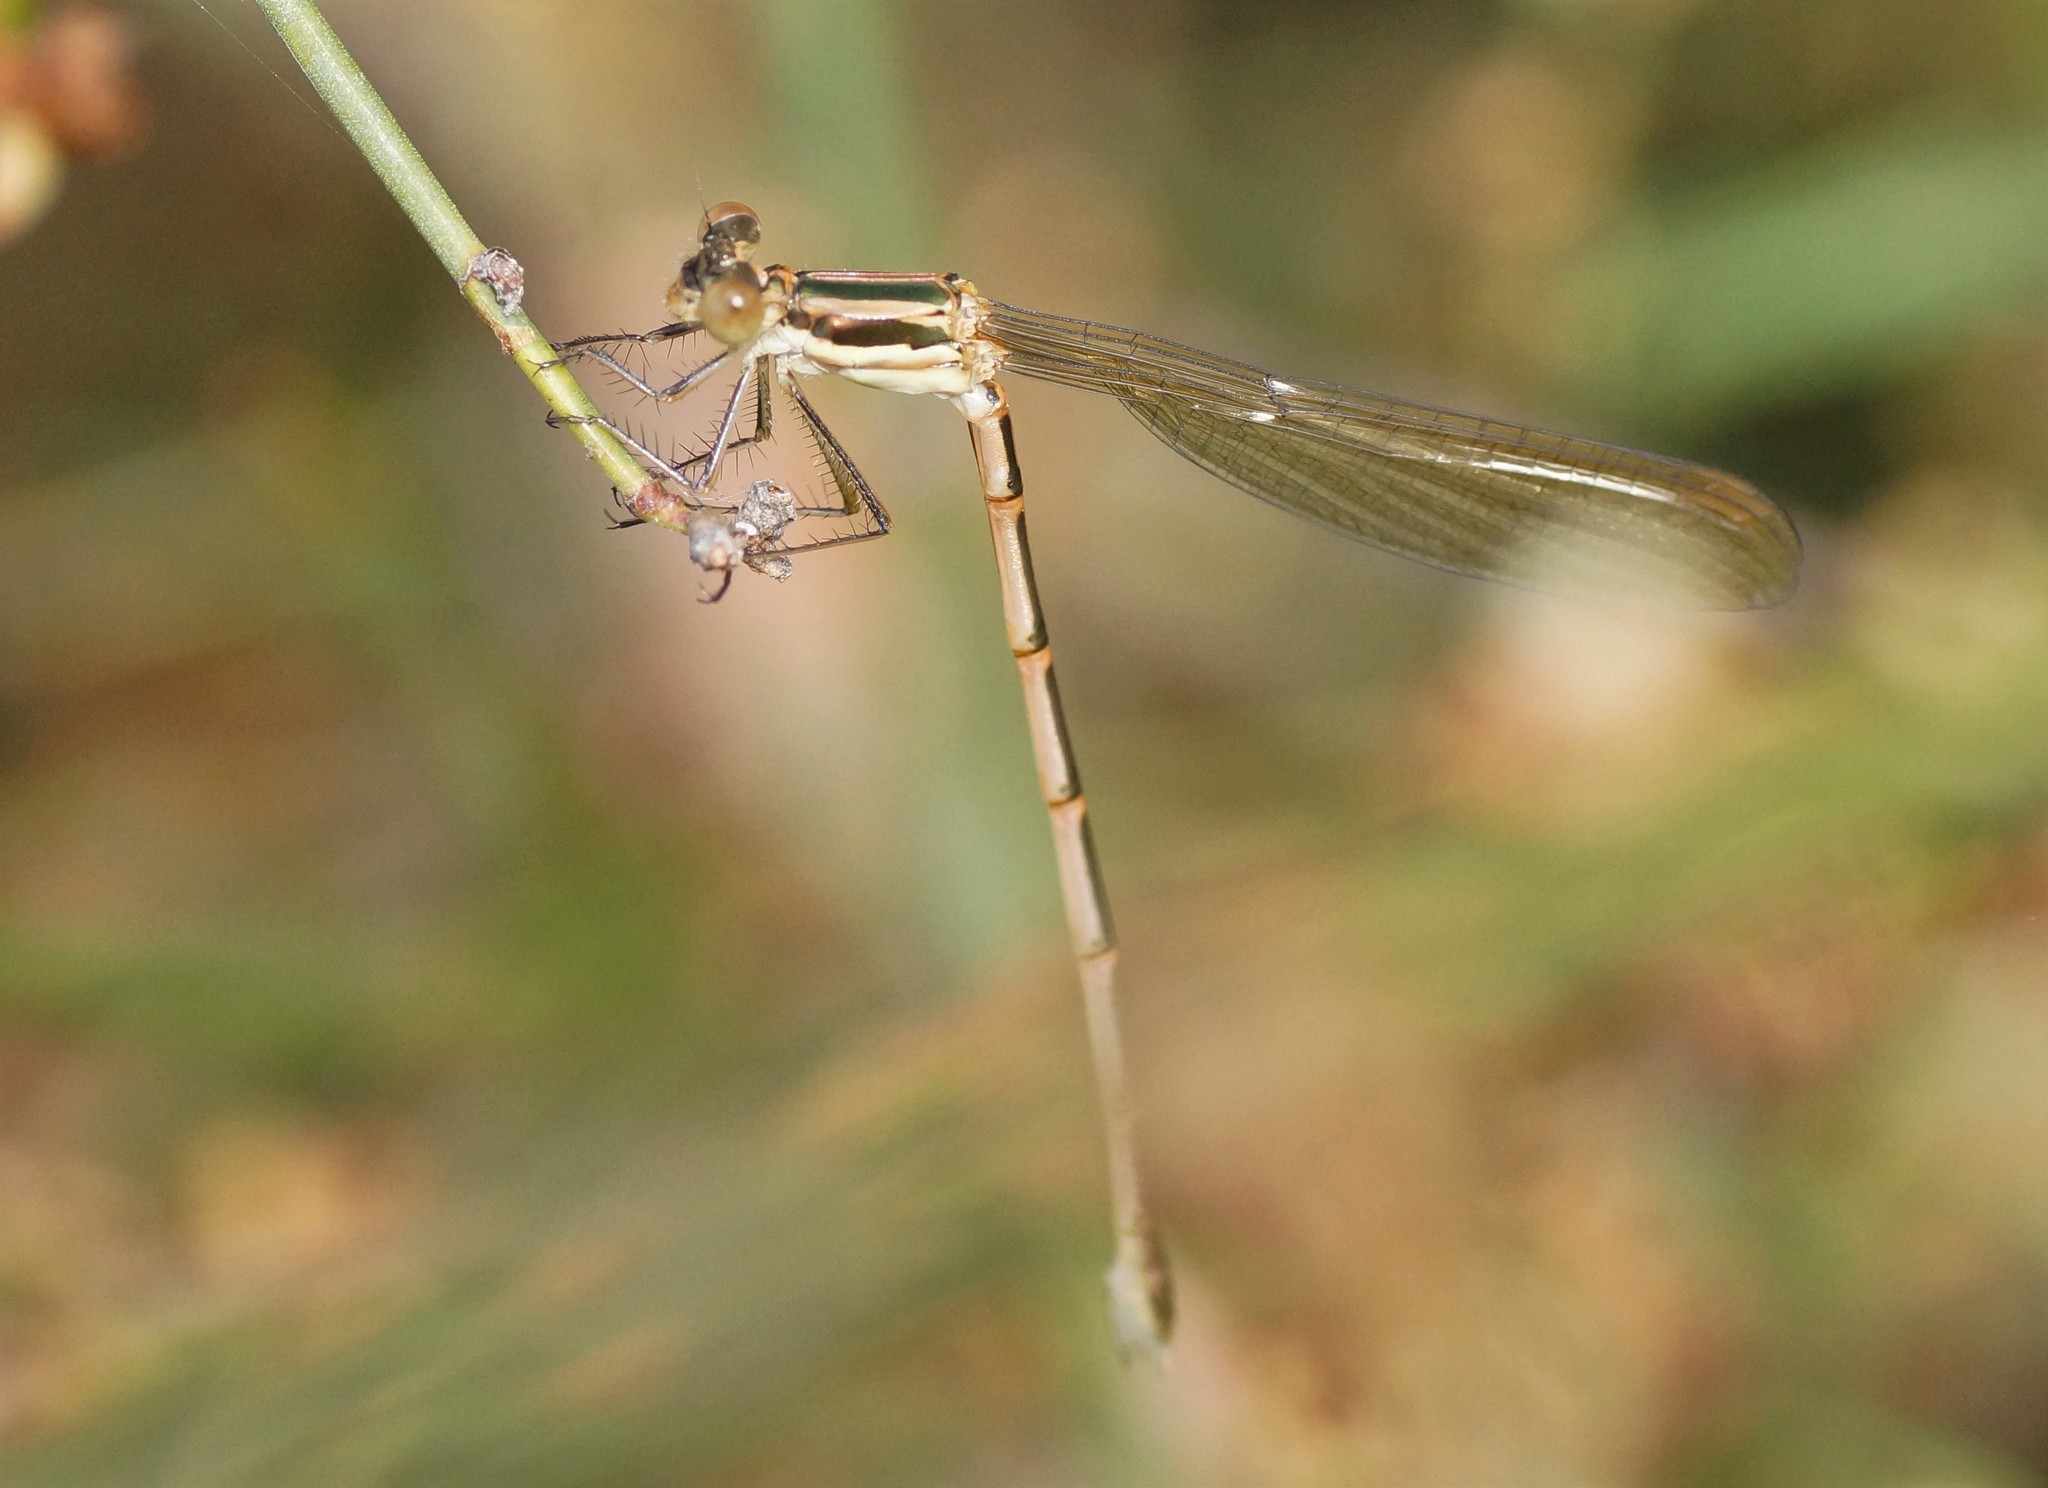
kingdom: Animalia
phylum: Arthropoda
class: Insecta
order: Odonata
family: Lestidae
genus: Austrolestes
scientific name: Austrolestes analis
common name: Slender ringtail
